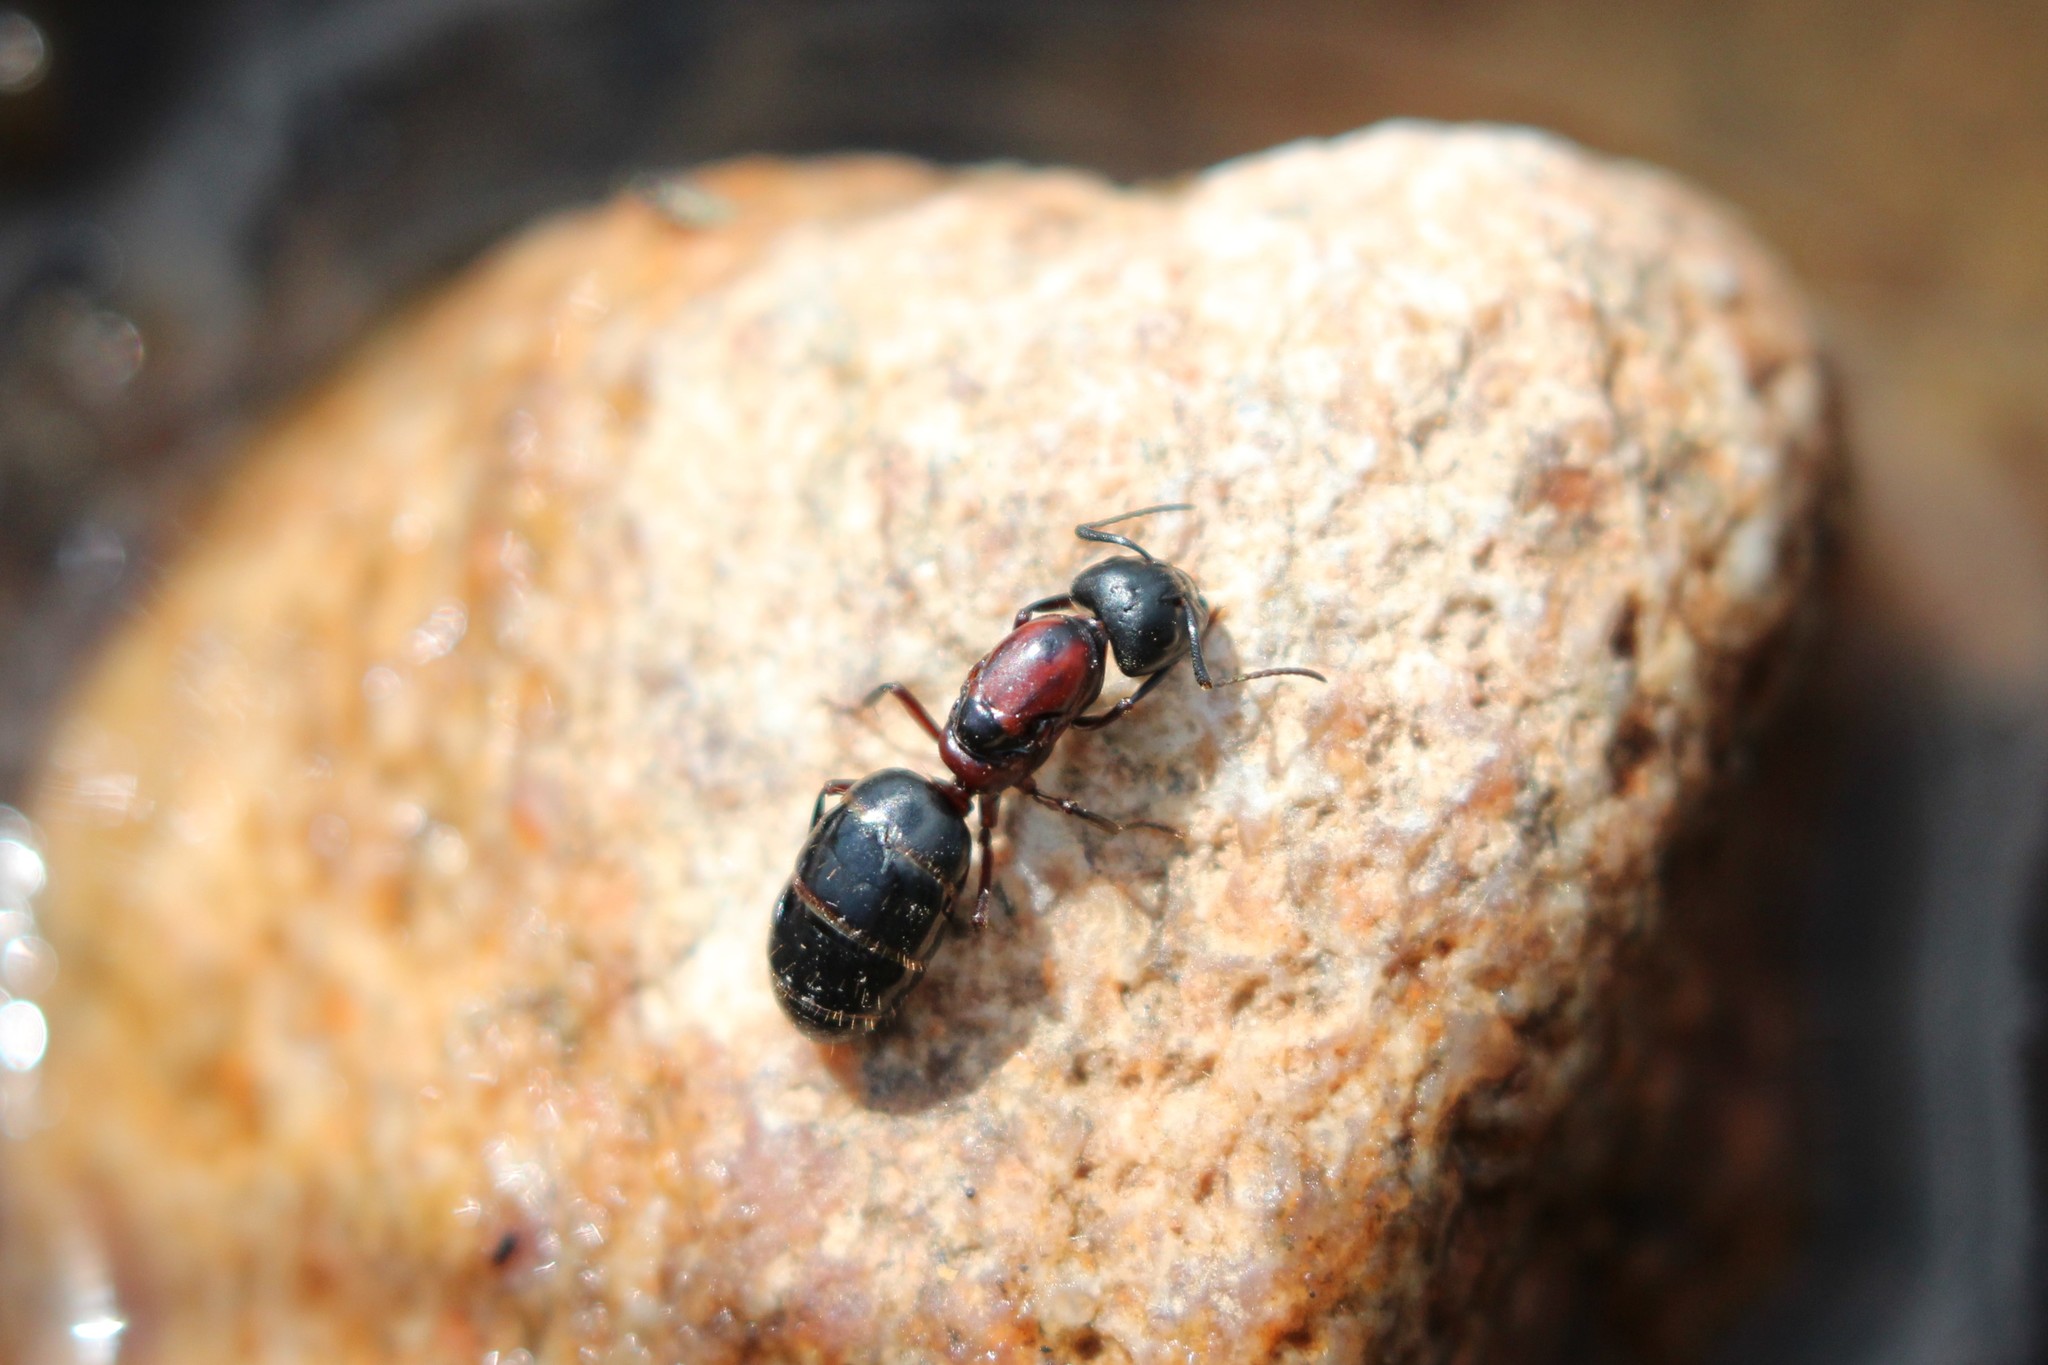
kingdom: Animalia
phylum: Arthropoda
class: Insecta
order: Hymenoptera
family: Formicidae
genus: Camponotus
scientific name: Camponotus novaeboracensis
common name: New york carpenter ant
